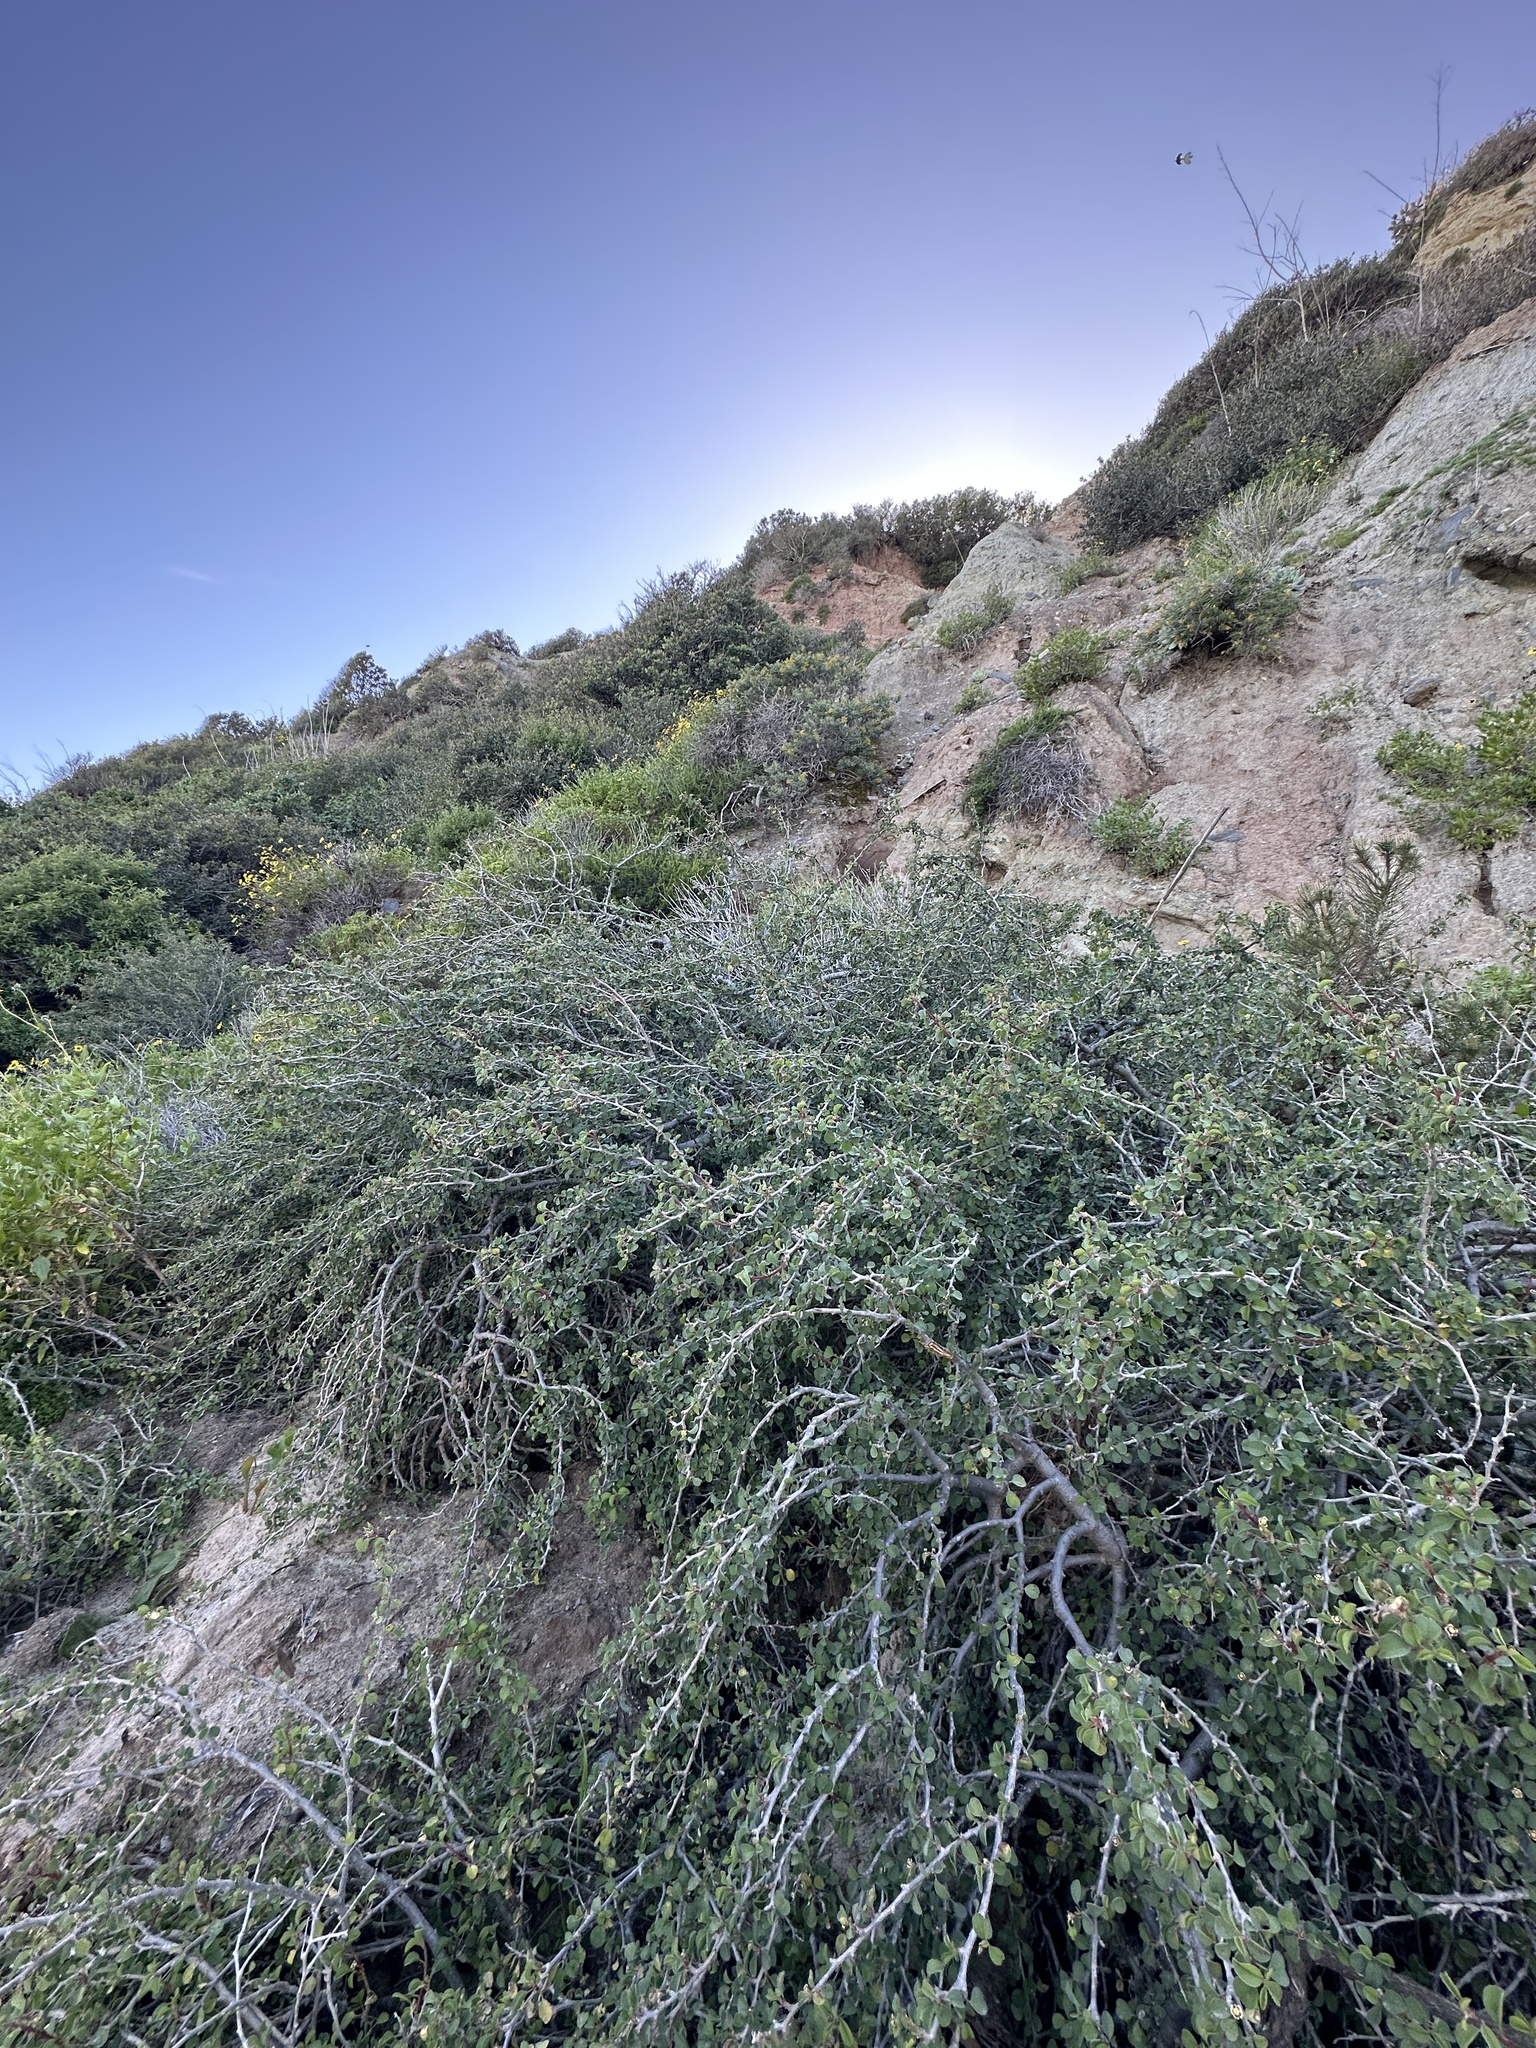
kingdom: Plantae
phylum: Tracheophyta
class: Magnoliopsida
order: Malpighiales
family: Euphorbiaceae
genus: Euphorbia
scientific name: Euphorbia misera
